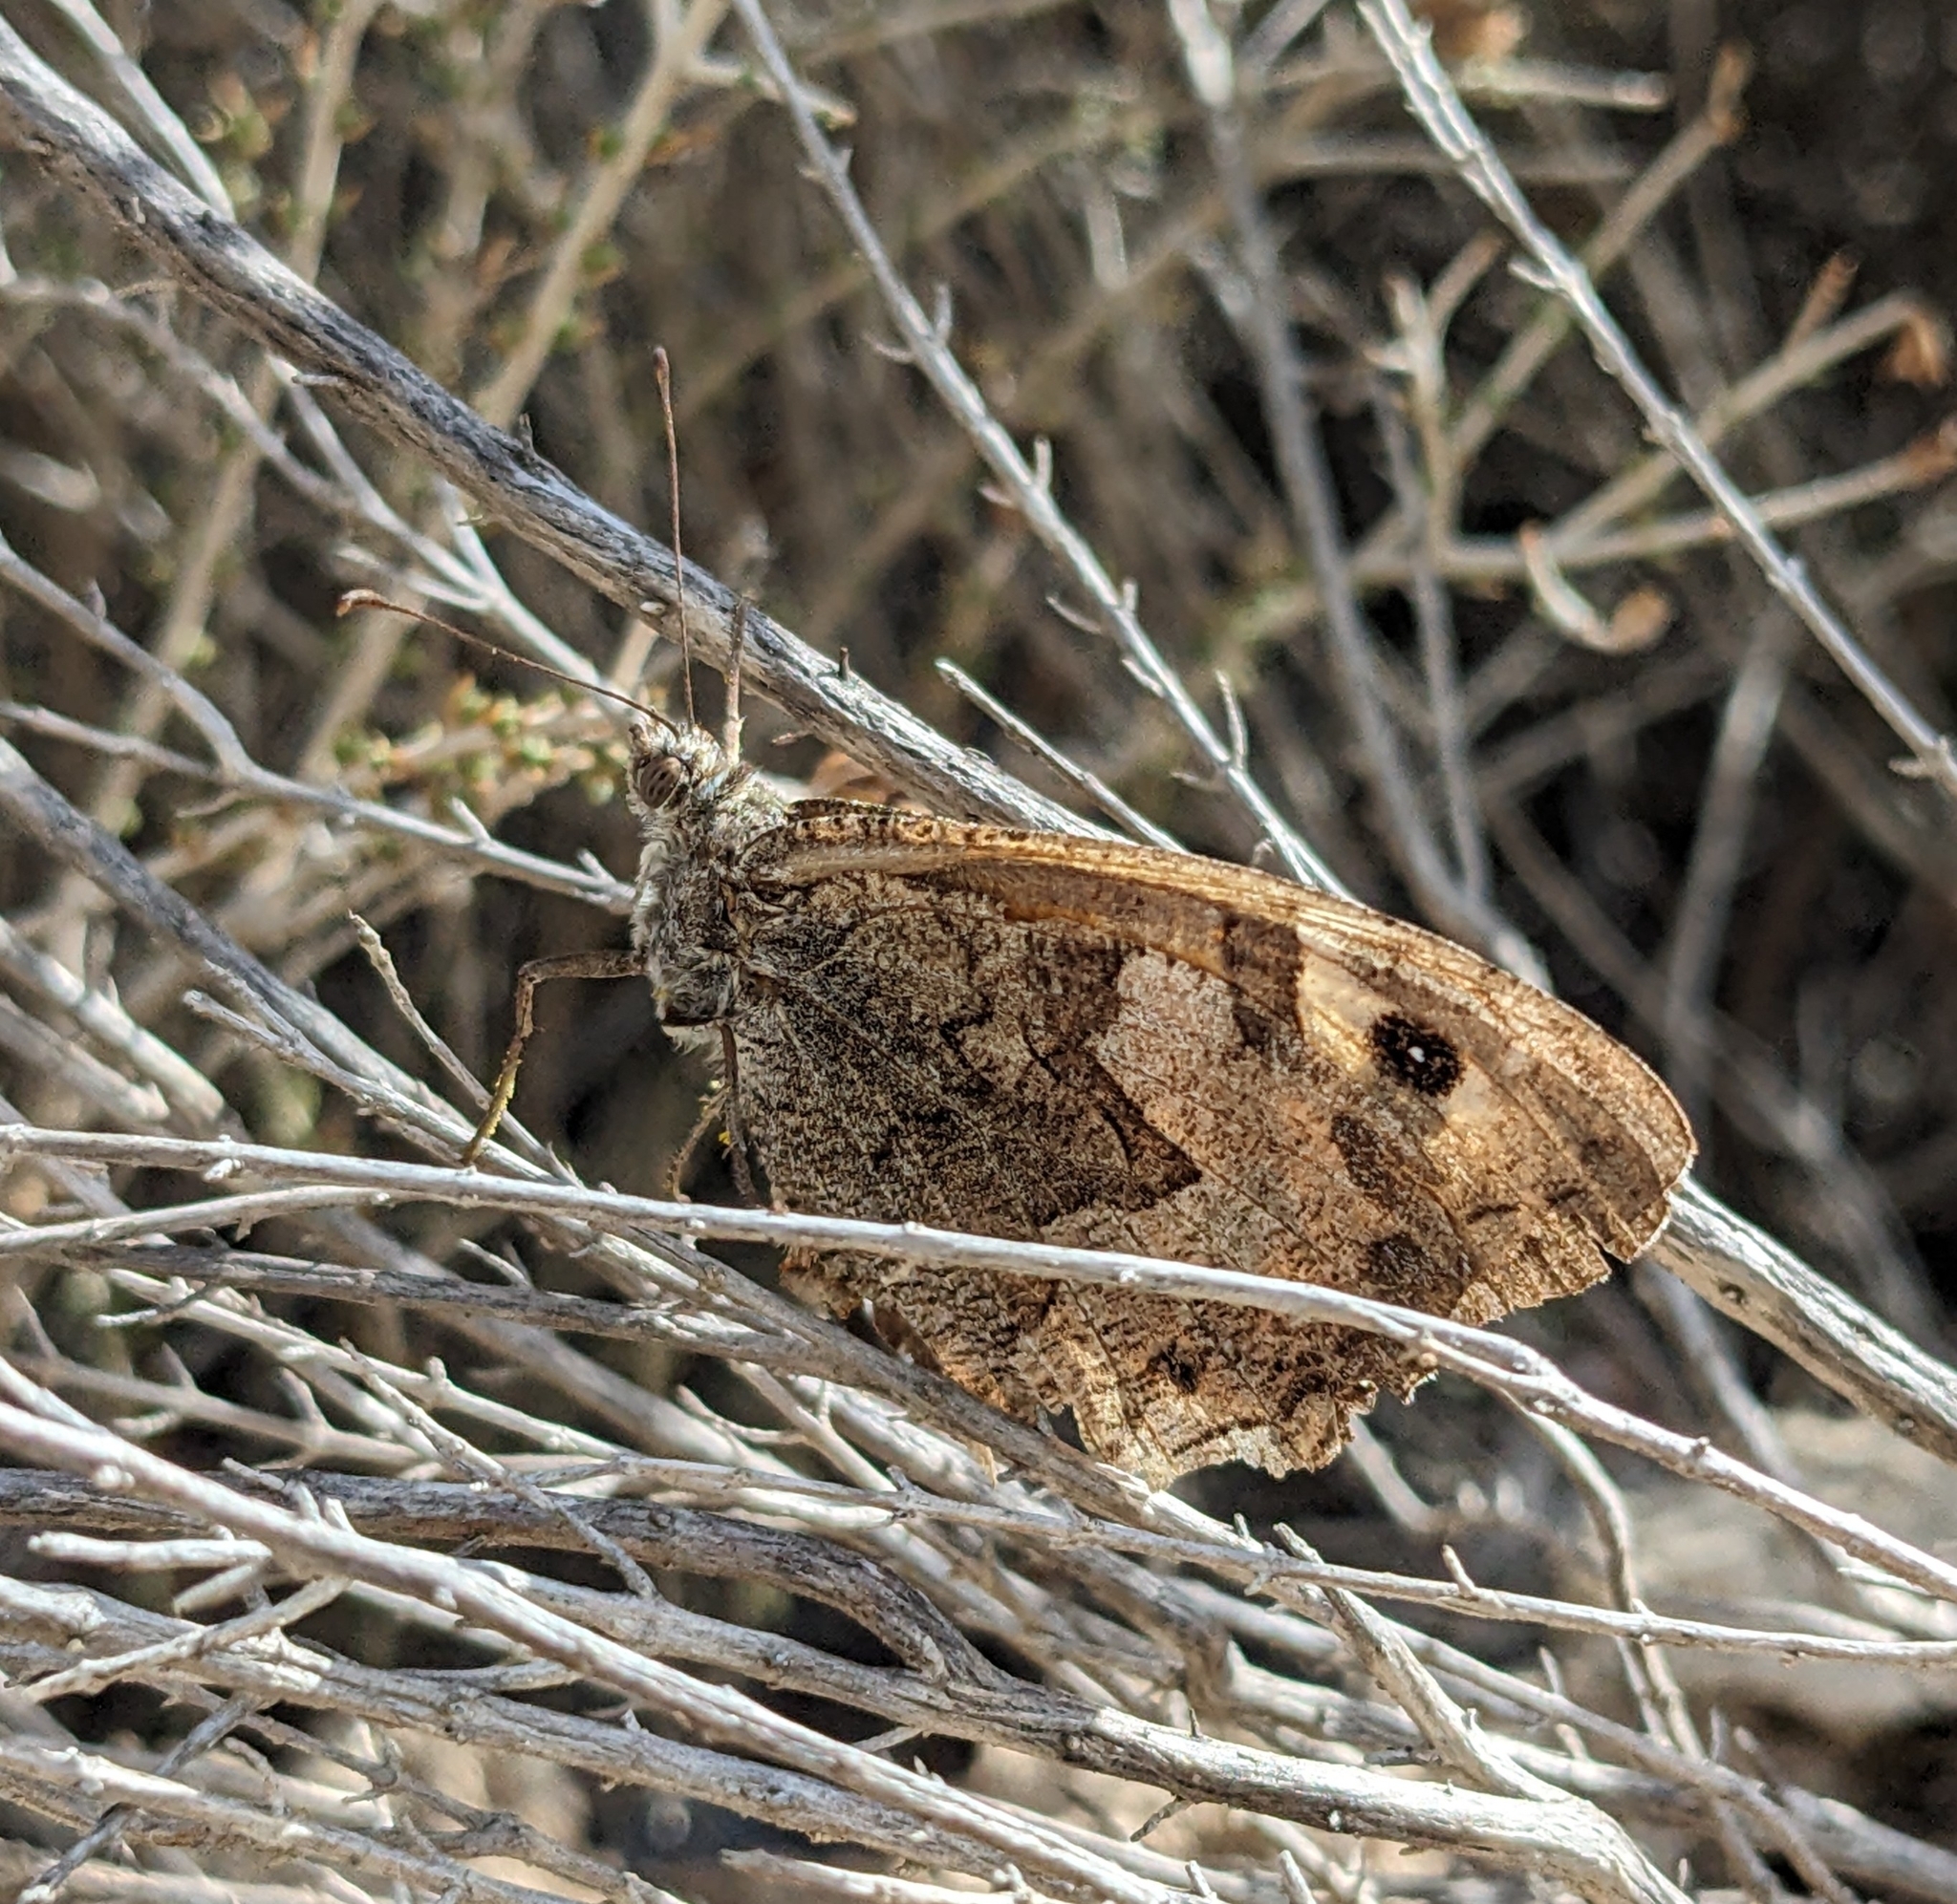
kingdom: Animalia
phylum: Arthropoda
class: Insecta
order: Lepidoptera
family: Nymphalidae
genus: Hipparchia
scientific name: Hipparchia cypriensis
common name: Cyprus grayling
